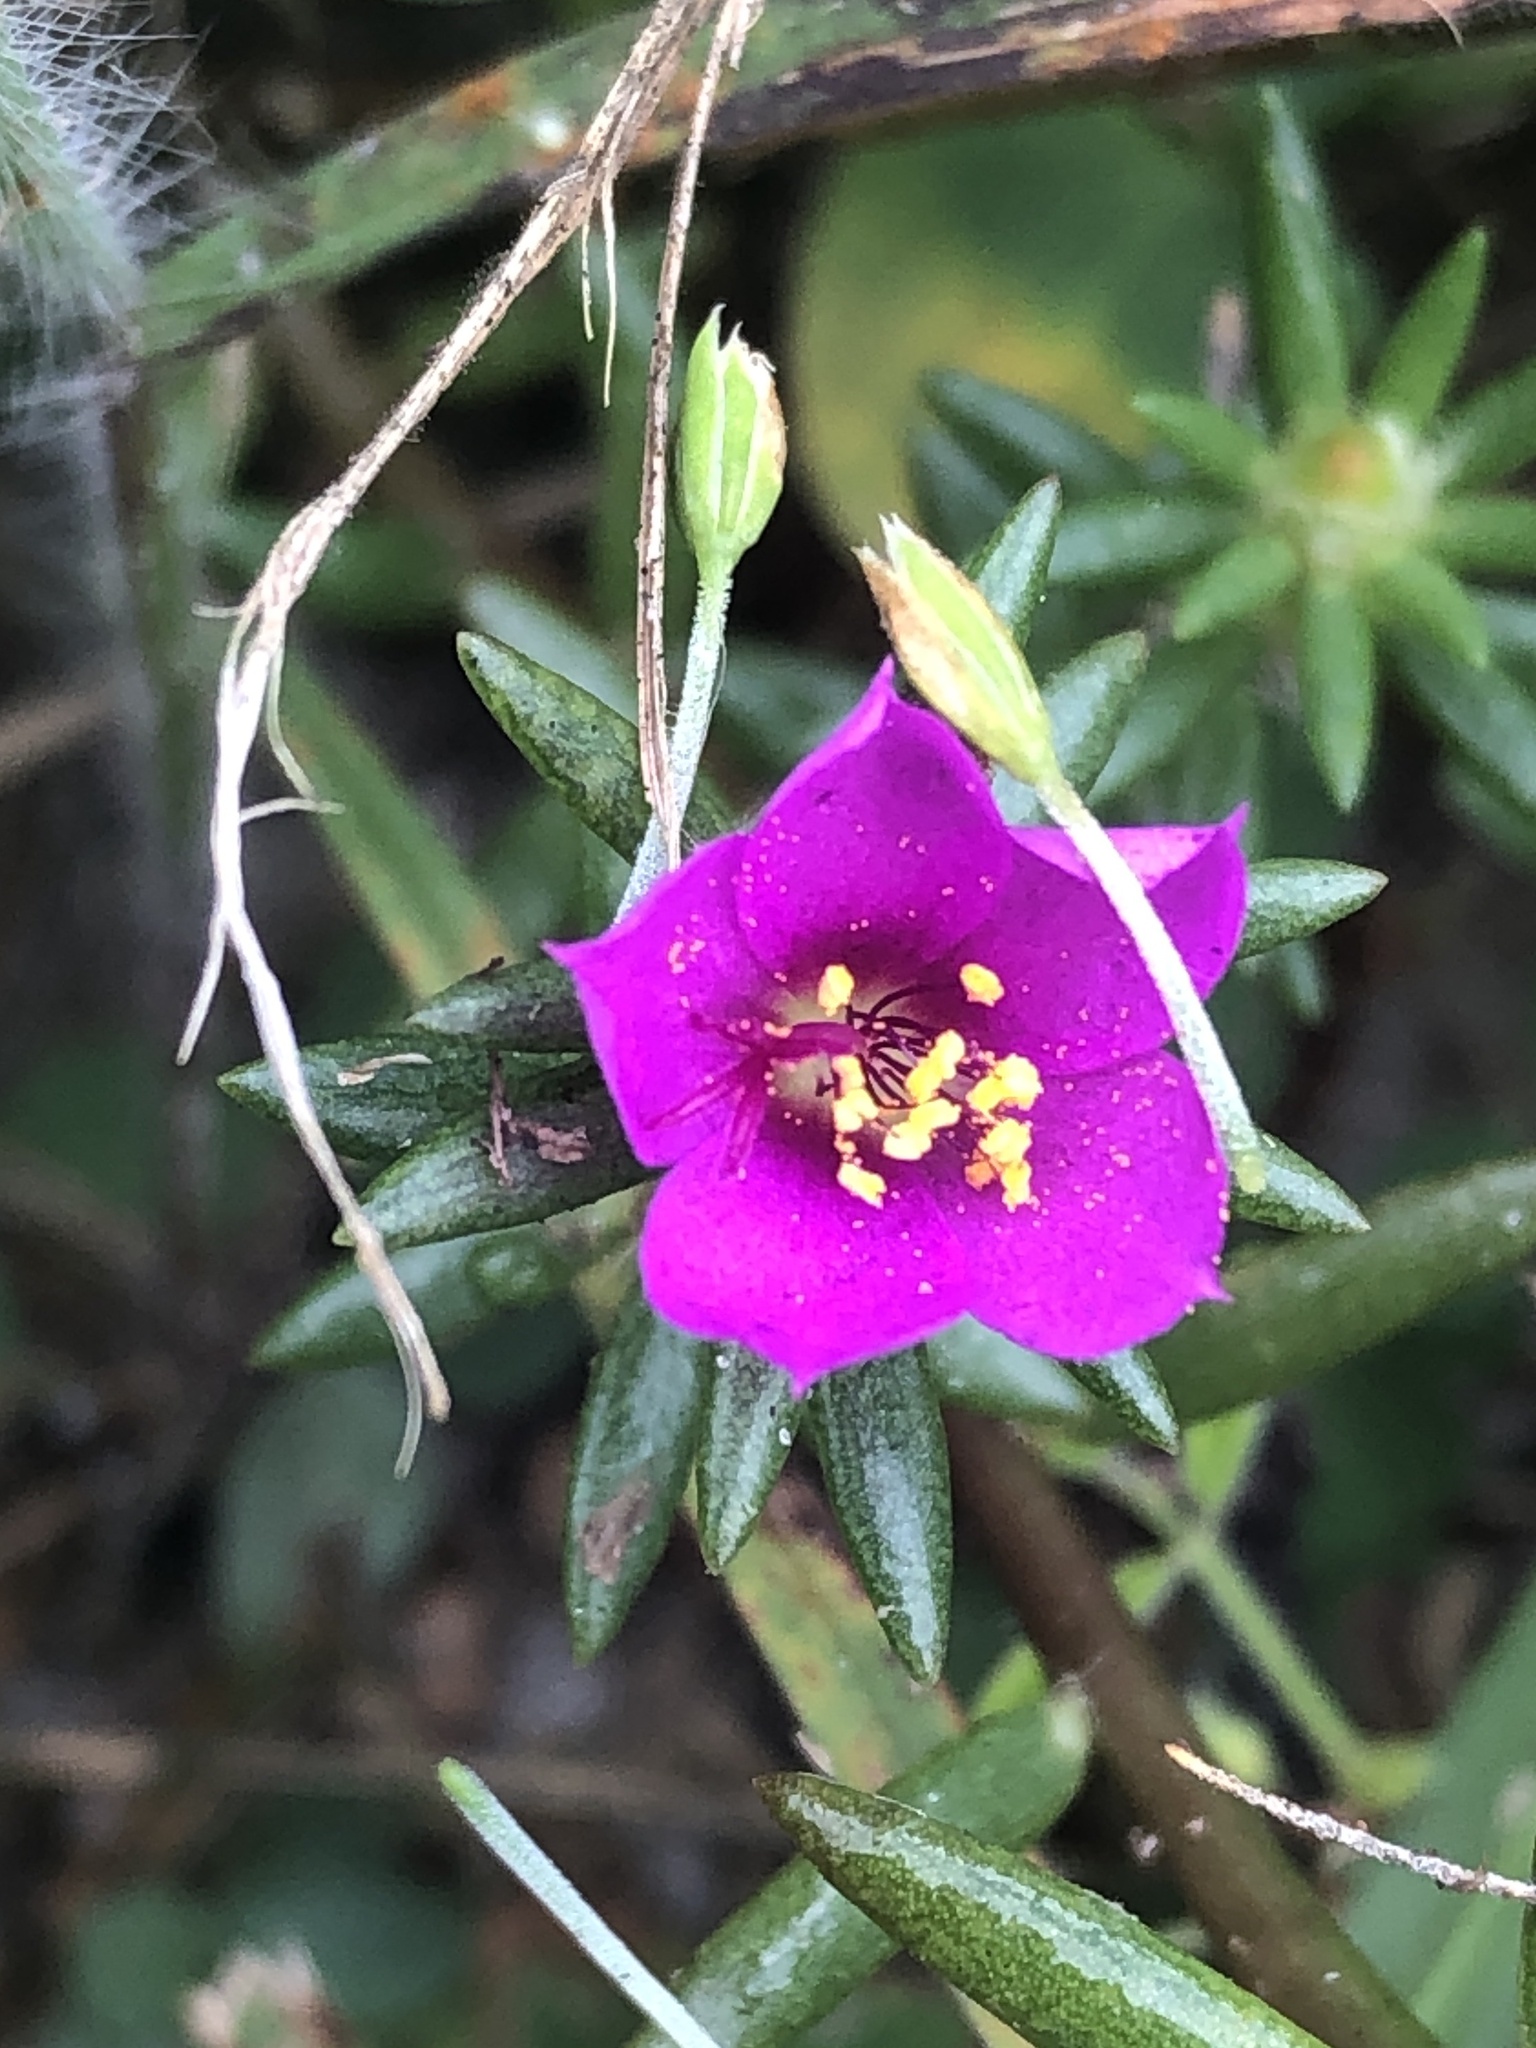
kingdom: Plantae
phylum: Tracheophyta
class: Magnoliopsida
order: Caryophyllales
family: Portulacaceae
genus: Portulaca
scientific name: Portulaca pilosa
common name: Kiss me quick
